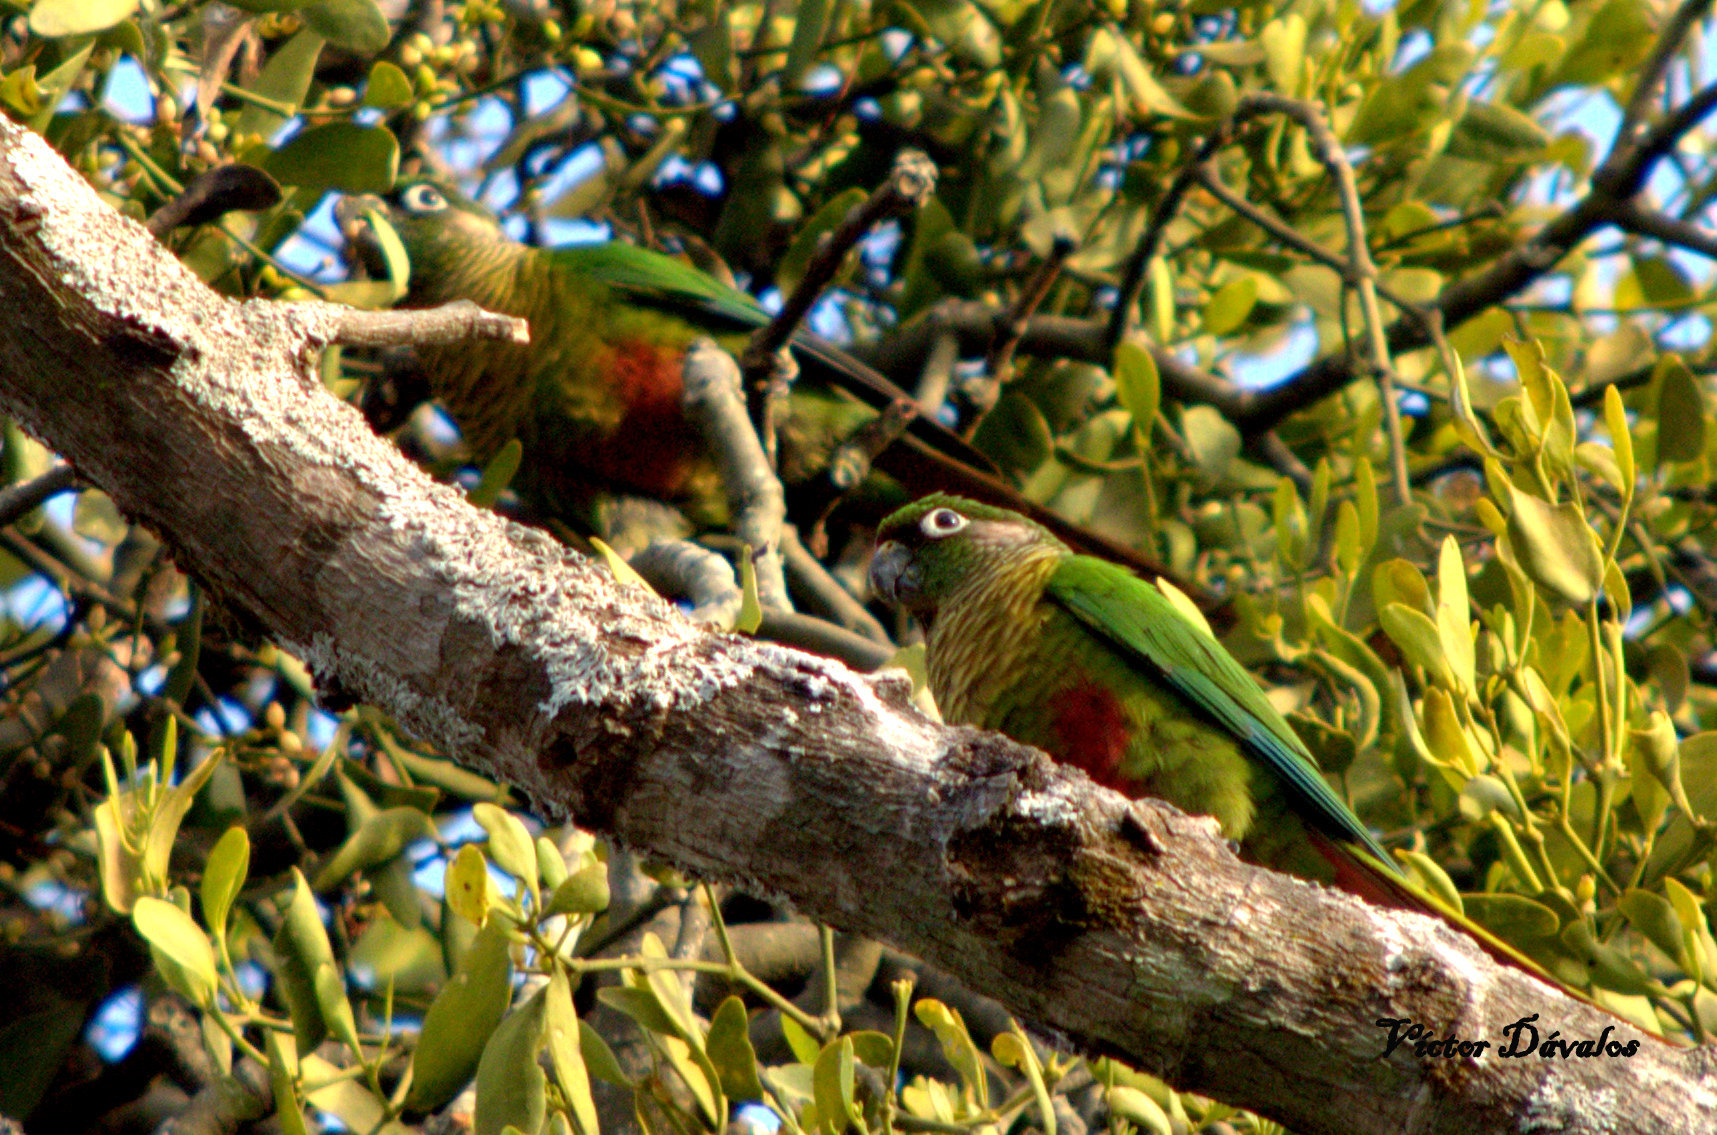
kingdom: Animalia
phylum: Chordata
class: Aves
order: Psittaciformes
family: Psittacidae
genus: Pyrrhura
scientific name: Pyrrhura frontalis
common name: Maroon-bellied parakeet
